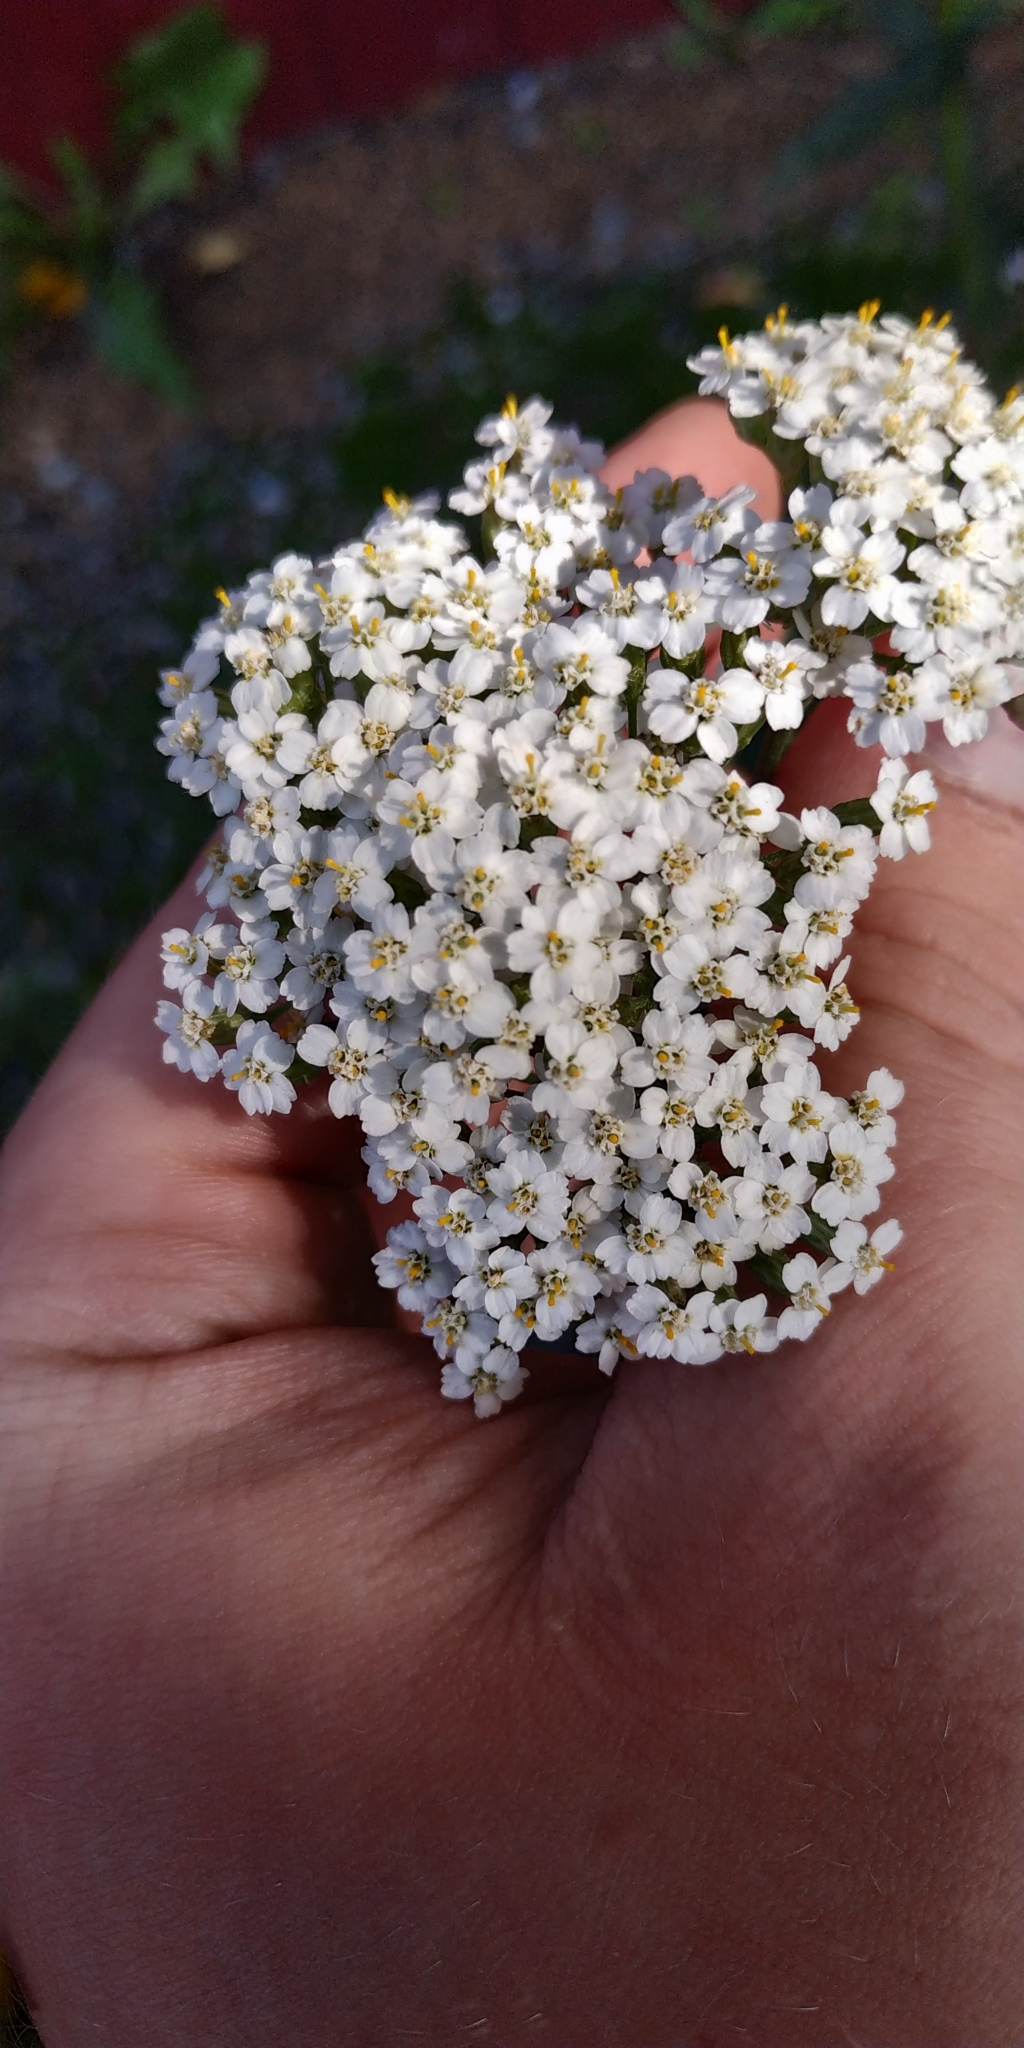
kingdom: Plantae
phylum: Tracheophyta
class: Magnoliopsida
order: Asterales
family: Asteraceae
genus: Achillea
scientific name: Achillea millefolium
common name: Yarrow
